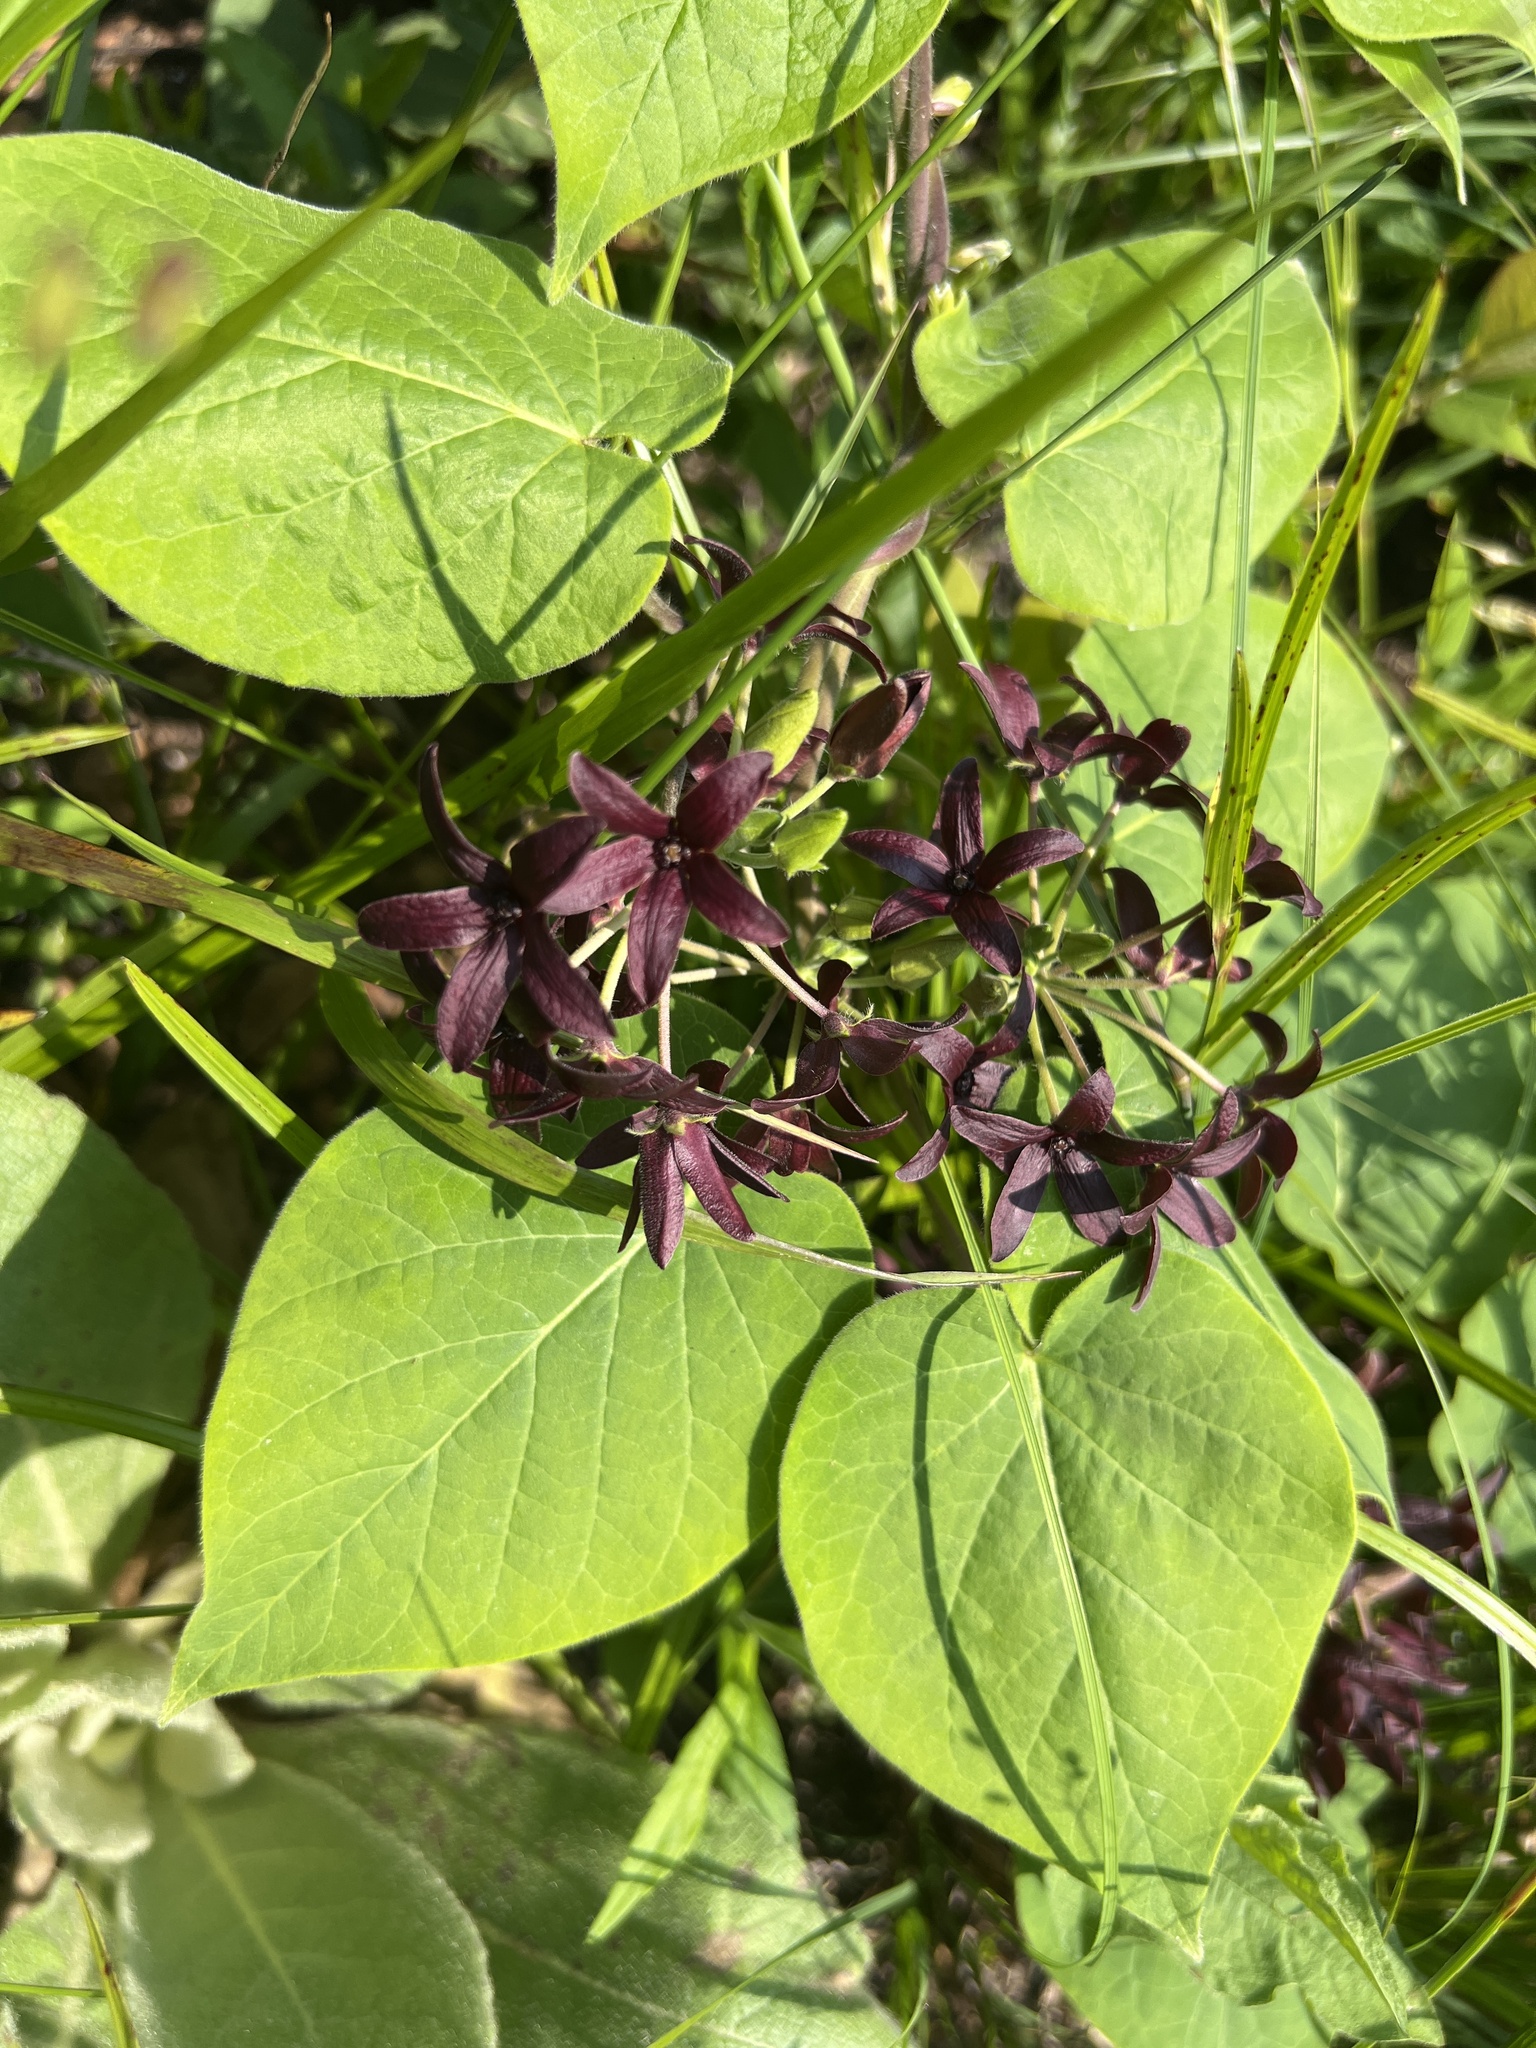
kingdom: Plantae
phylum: Tracheophyta
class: Magnoliopsida
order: Gentianales
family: Apocynaceae
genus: Matelea
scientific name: Matelea carolinensis
